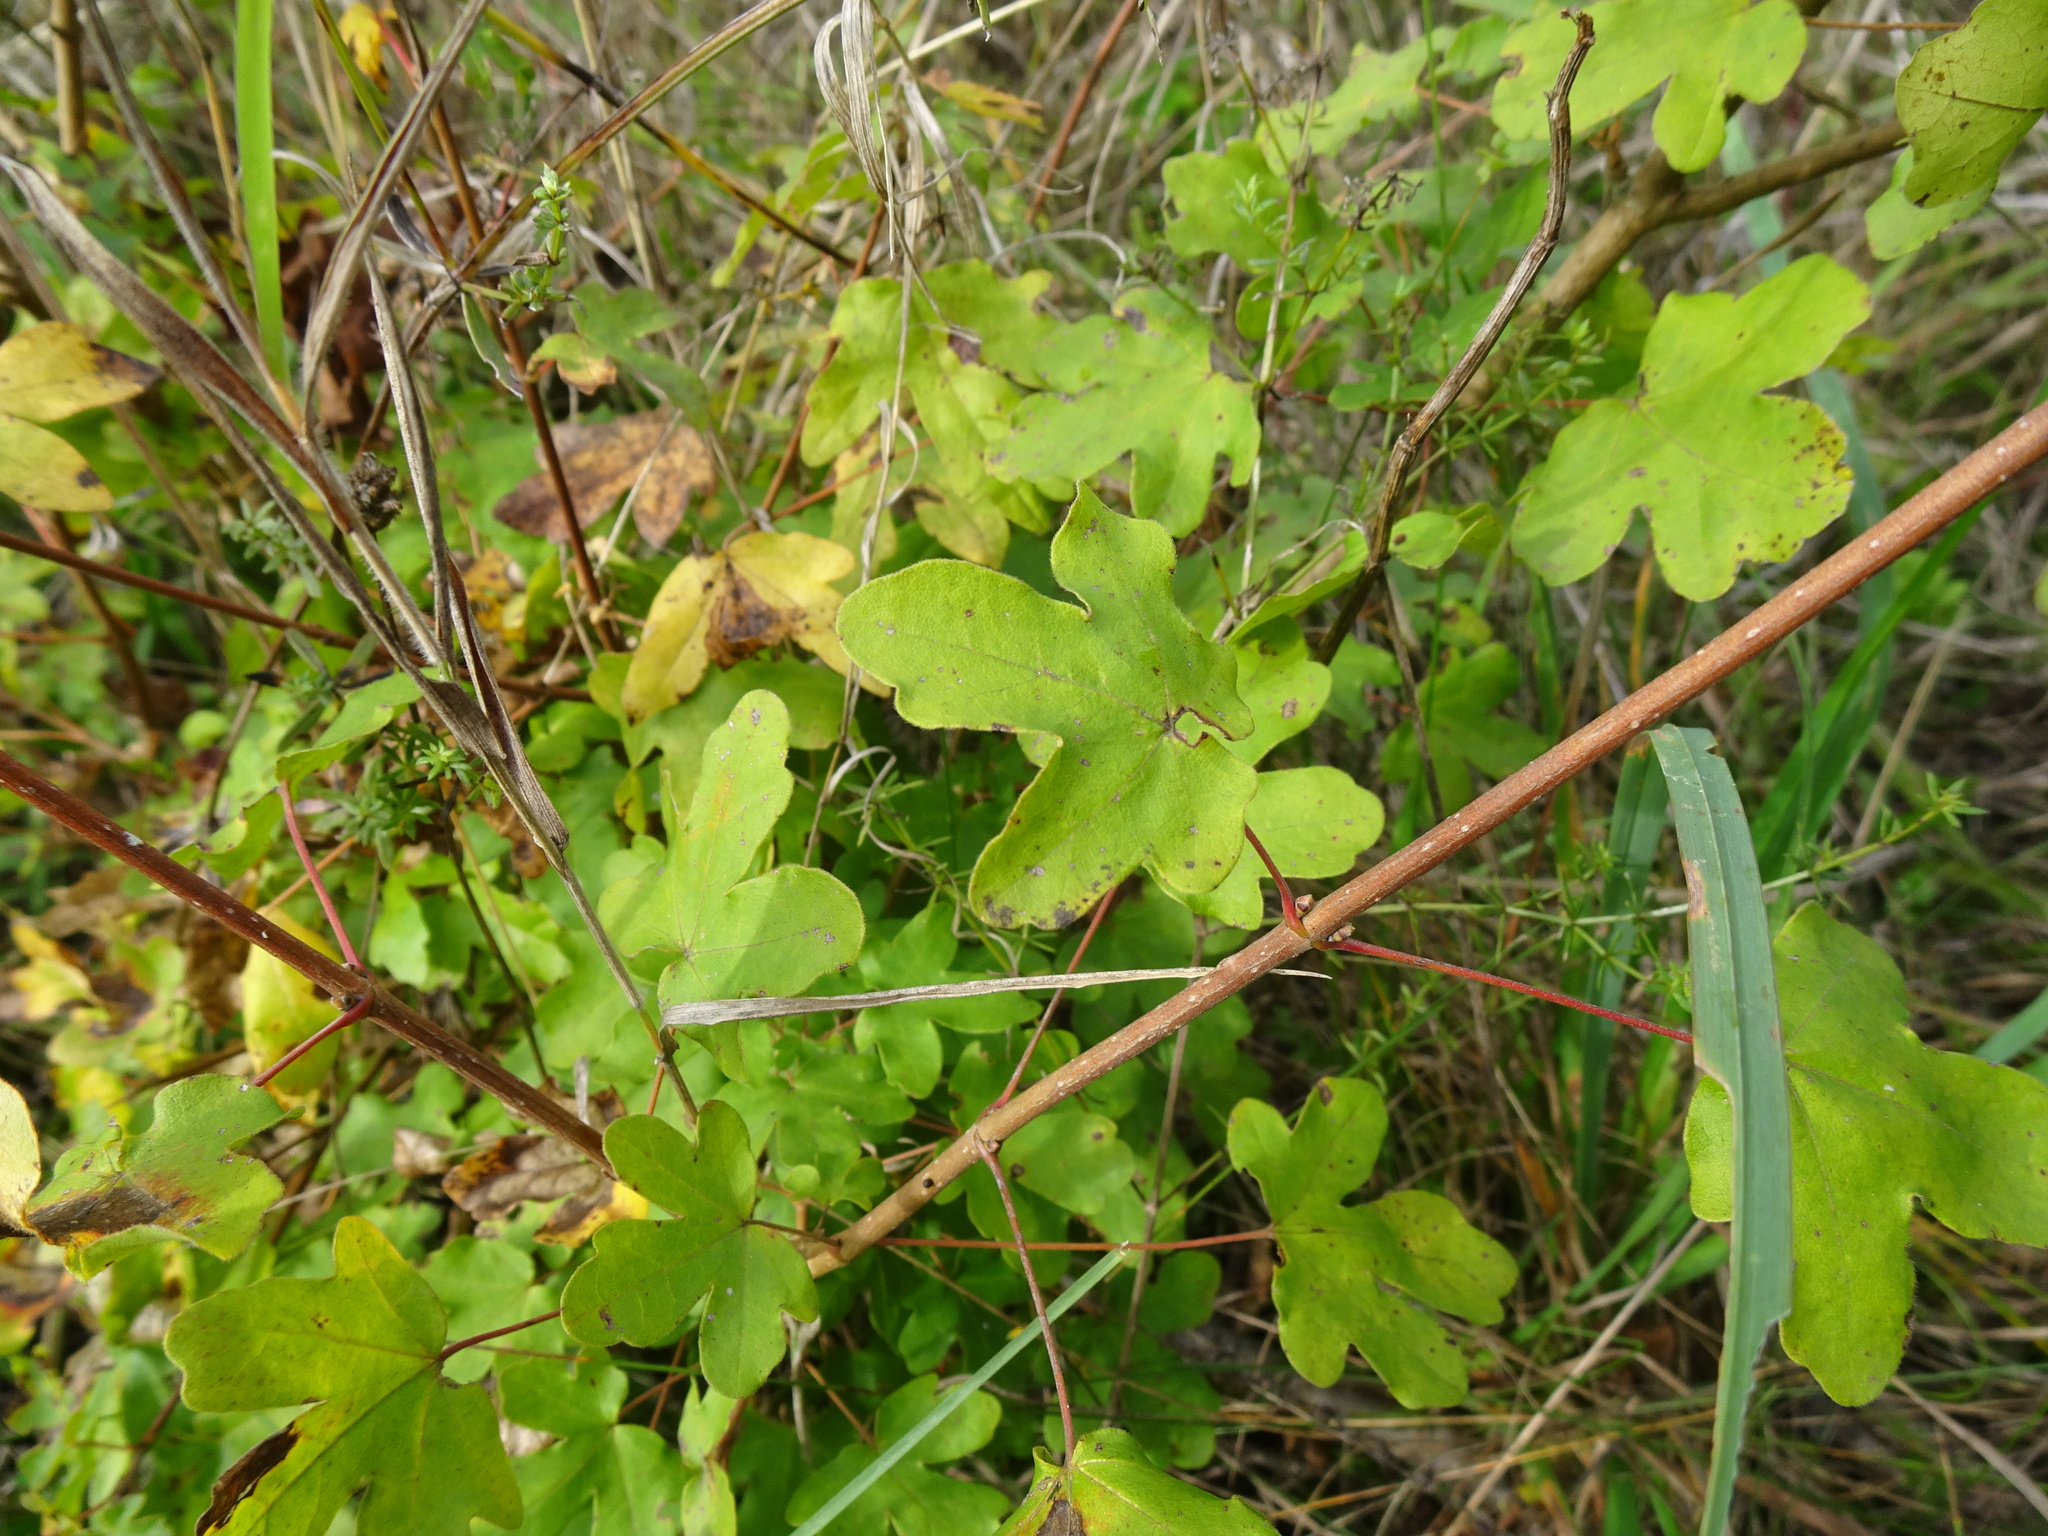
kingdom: Plantae
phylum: Tracheophyta
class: Magnoliopsida
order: Sapindales
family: Sapindaceae
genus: Acer
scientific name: Acer campestre
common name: Field maple
